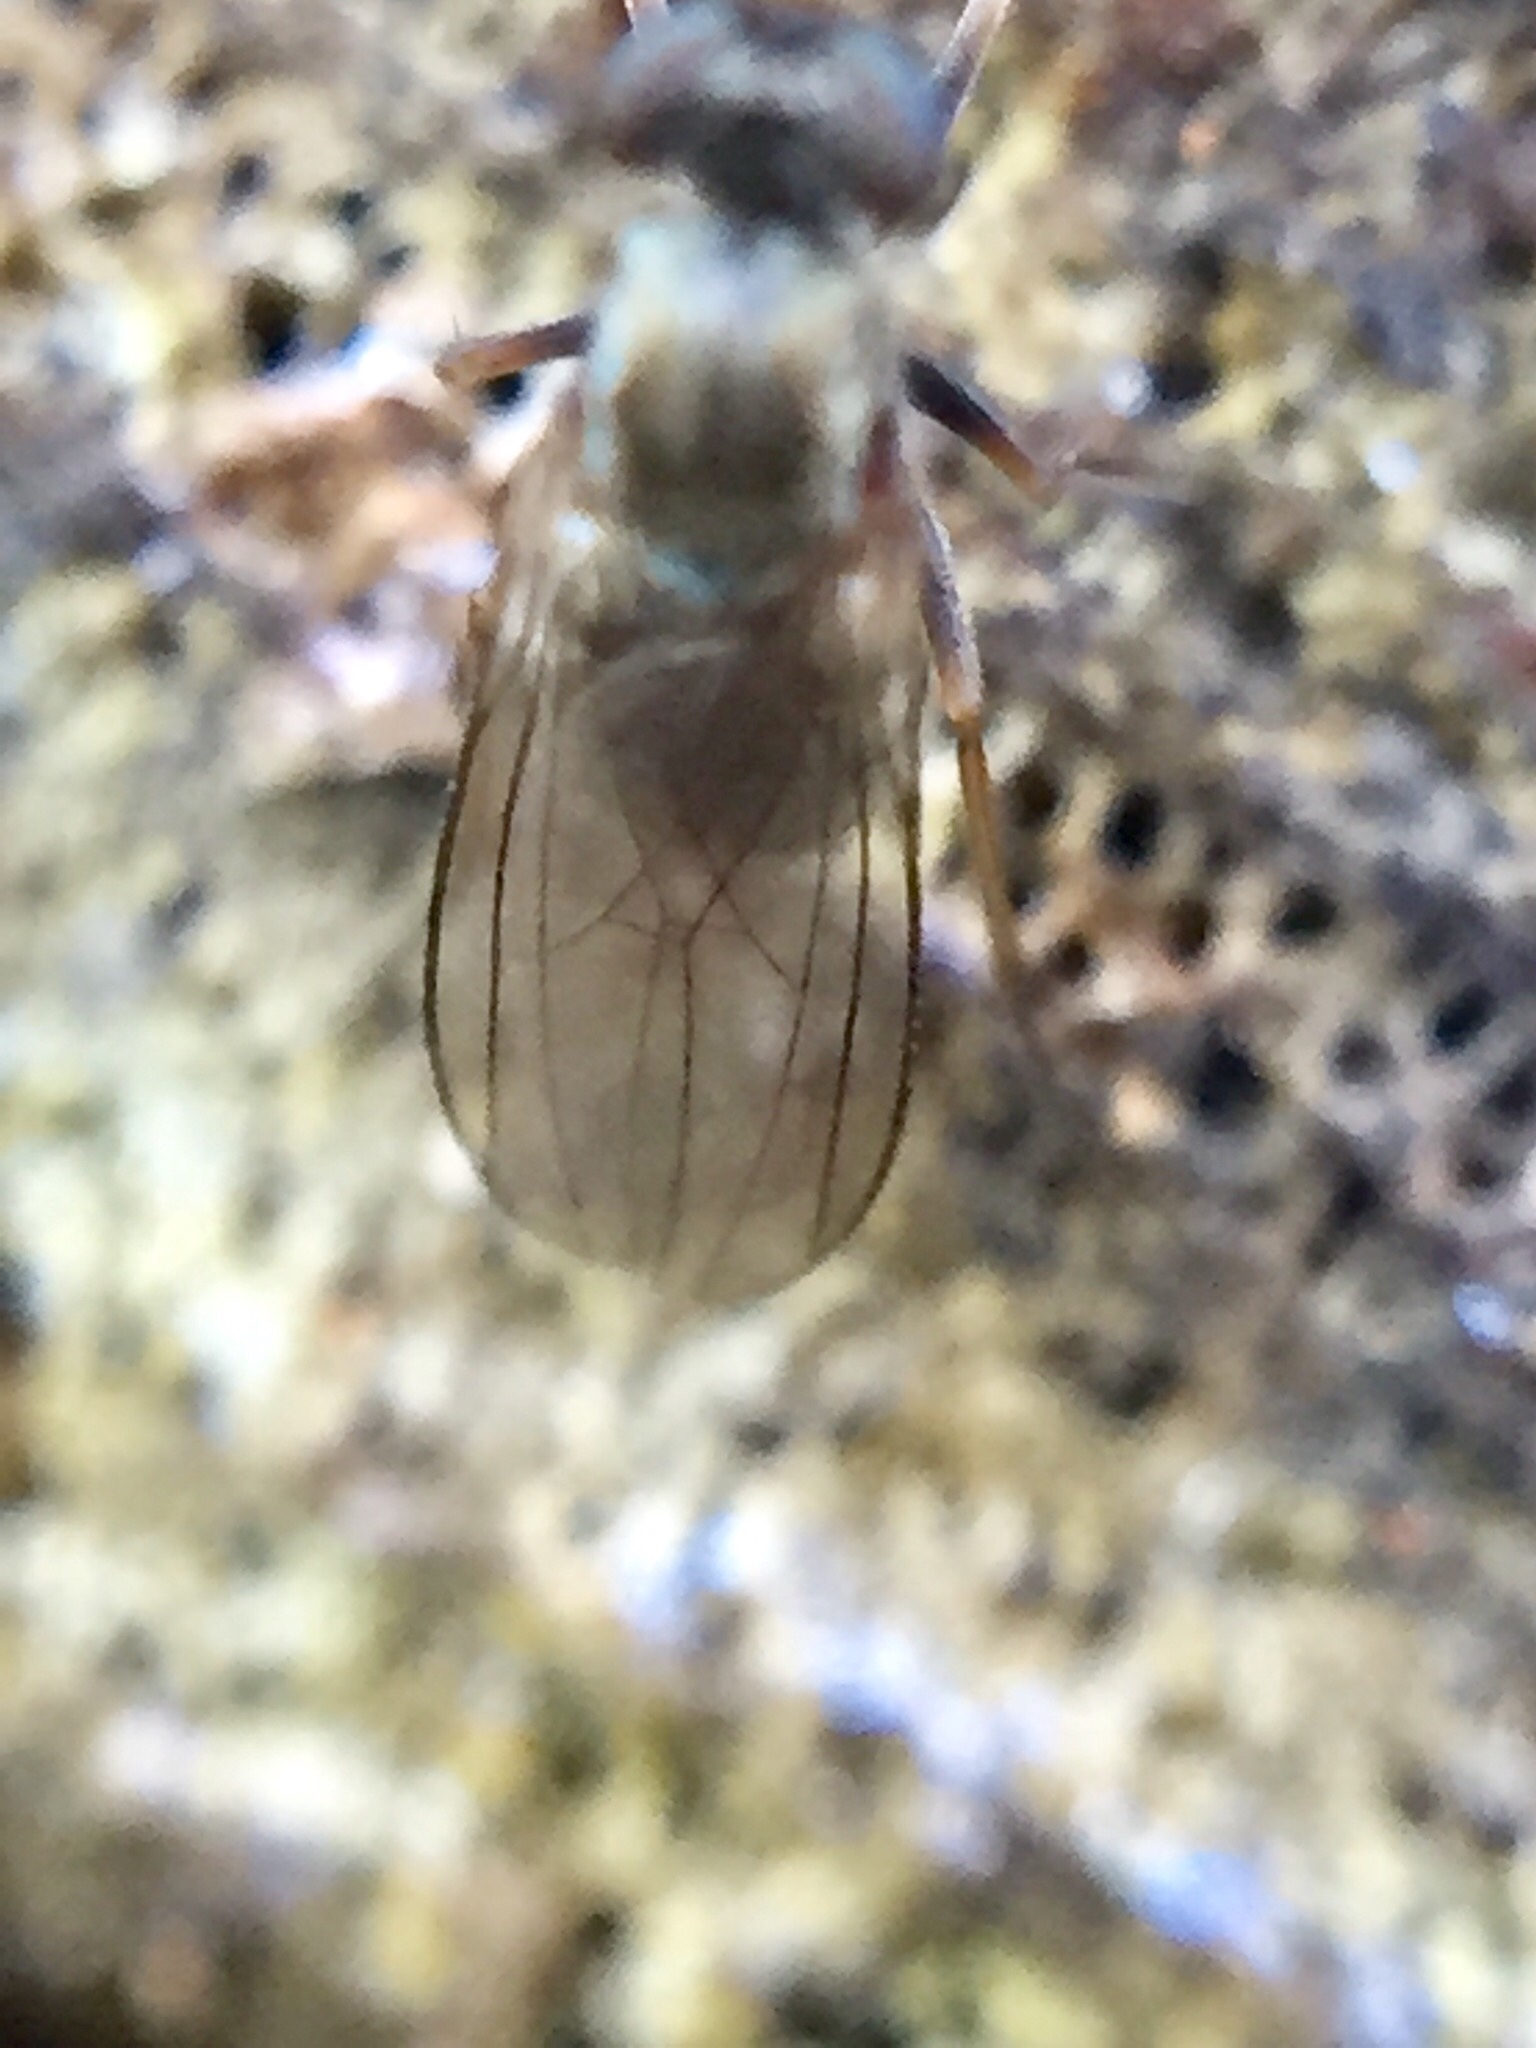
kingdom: Animalia
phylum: Arthropoda
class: Insecta
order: Diptera
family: Dolichopodidae
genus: Medetera
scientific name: Medetera grisescens
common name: Fly
